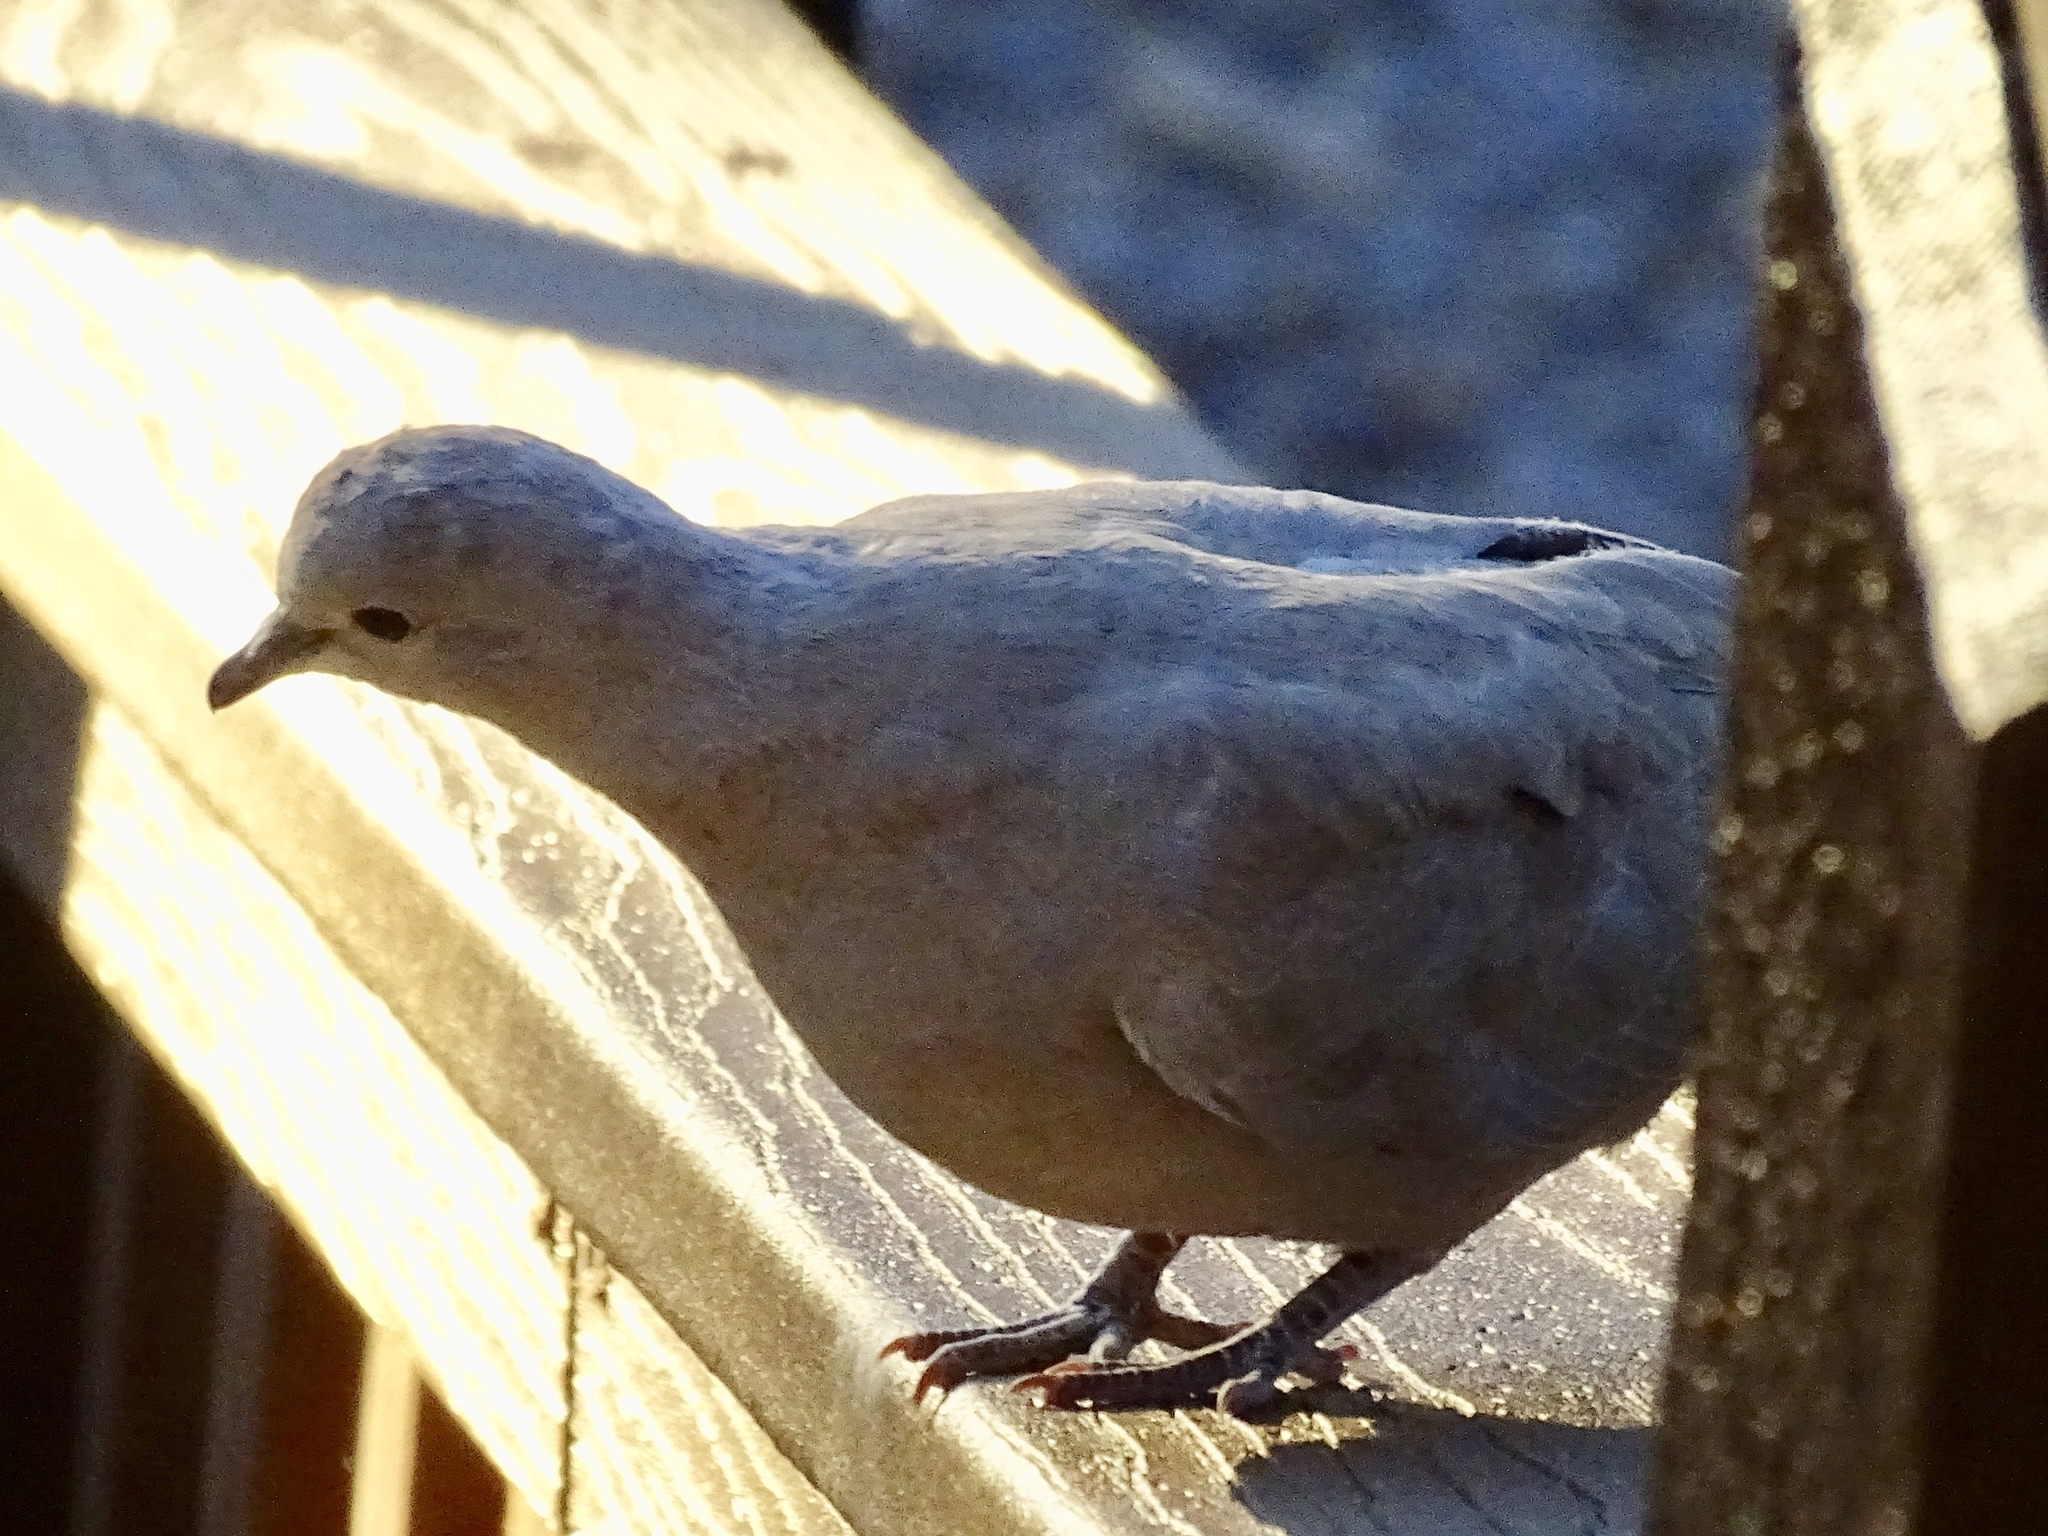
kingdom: Animalia
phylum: Chordata
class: Aves
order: Columbiformes
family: Columbidae
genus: Streptopelia
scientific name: Streptopelia decaocto
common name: Eurasian collared dove
